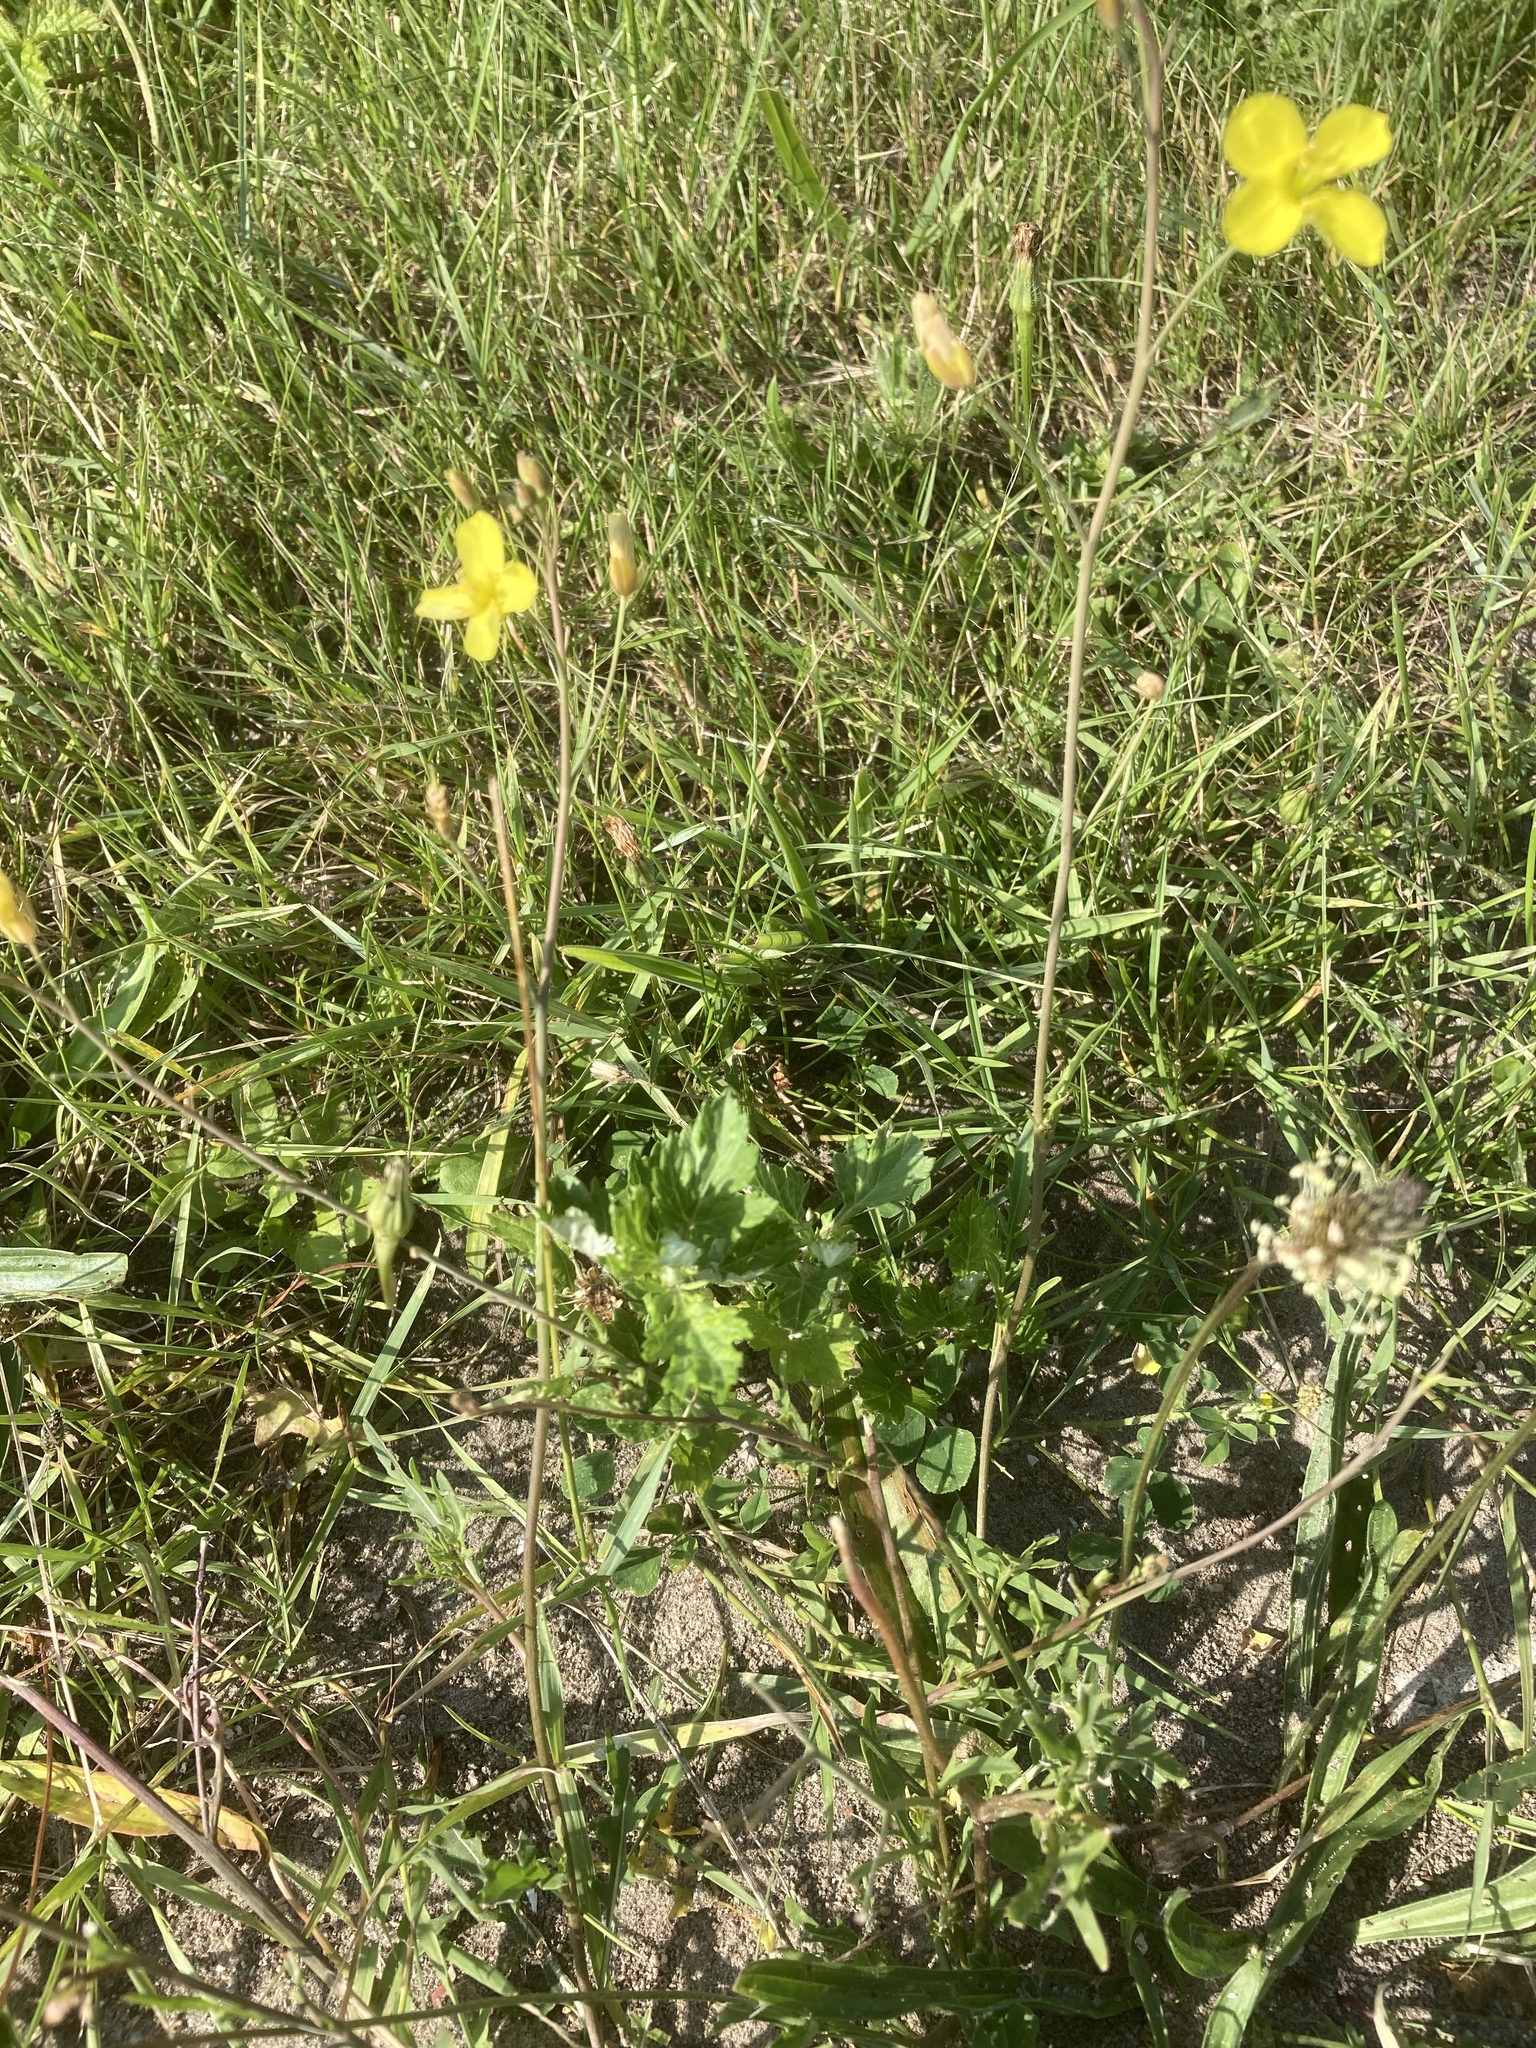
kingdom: Plantae
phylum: Tracheophyta
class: Magnoliopsida
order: Brassicales
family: Brassicaceae
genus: Diplotaxis
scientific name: Diplotaxis tenuifolia
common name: Perennial wall-rocket
